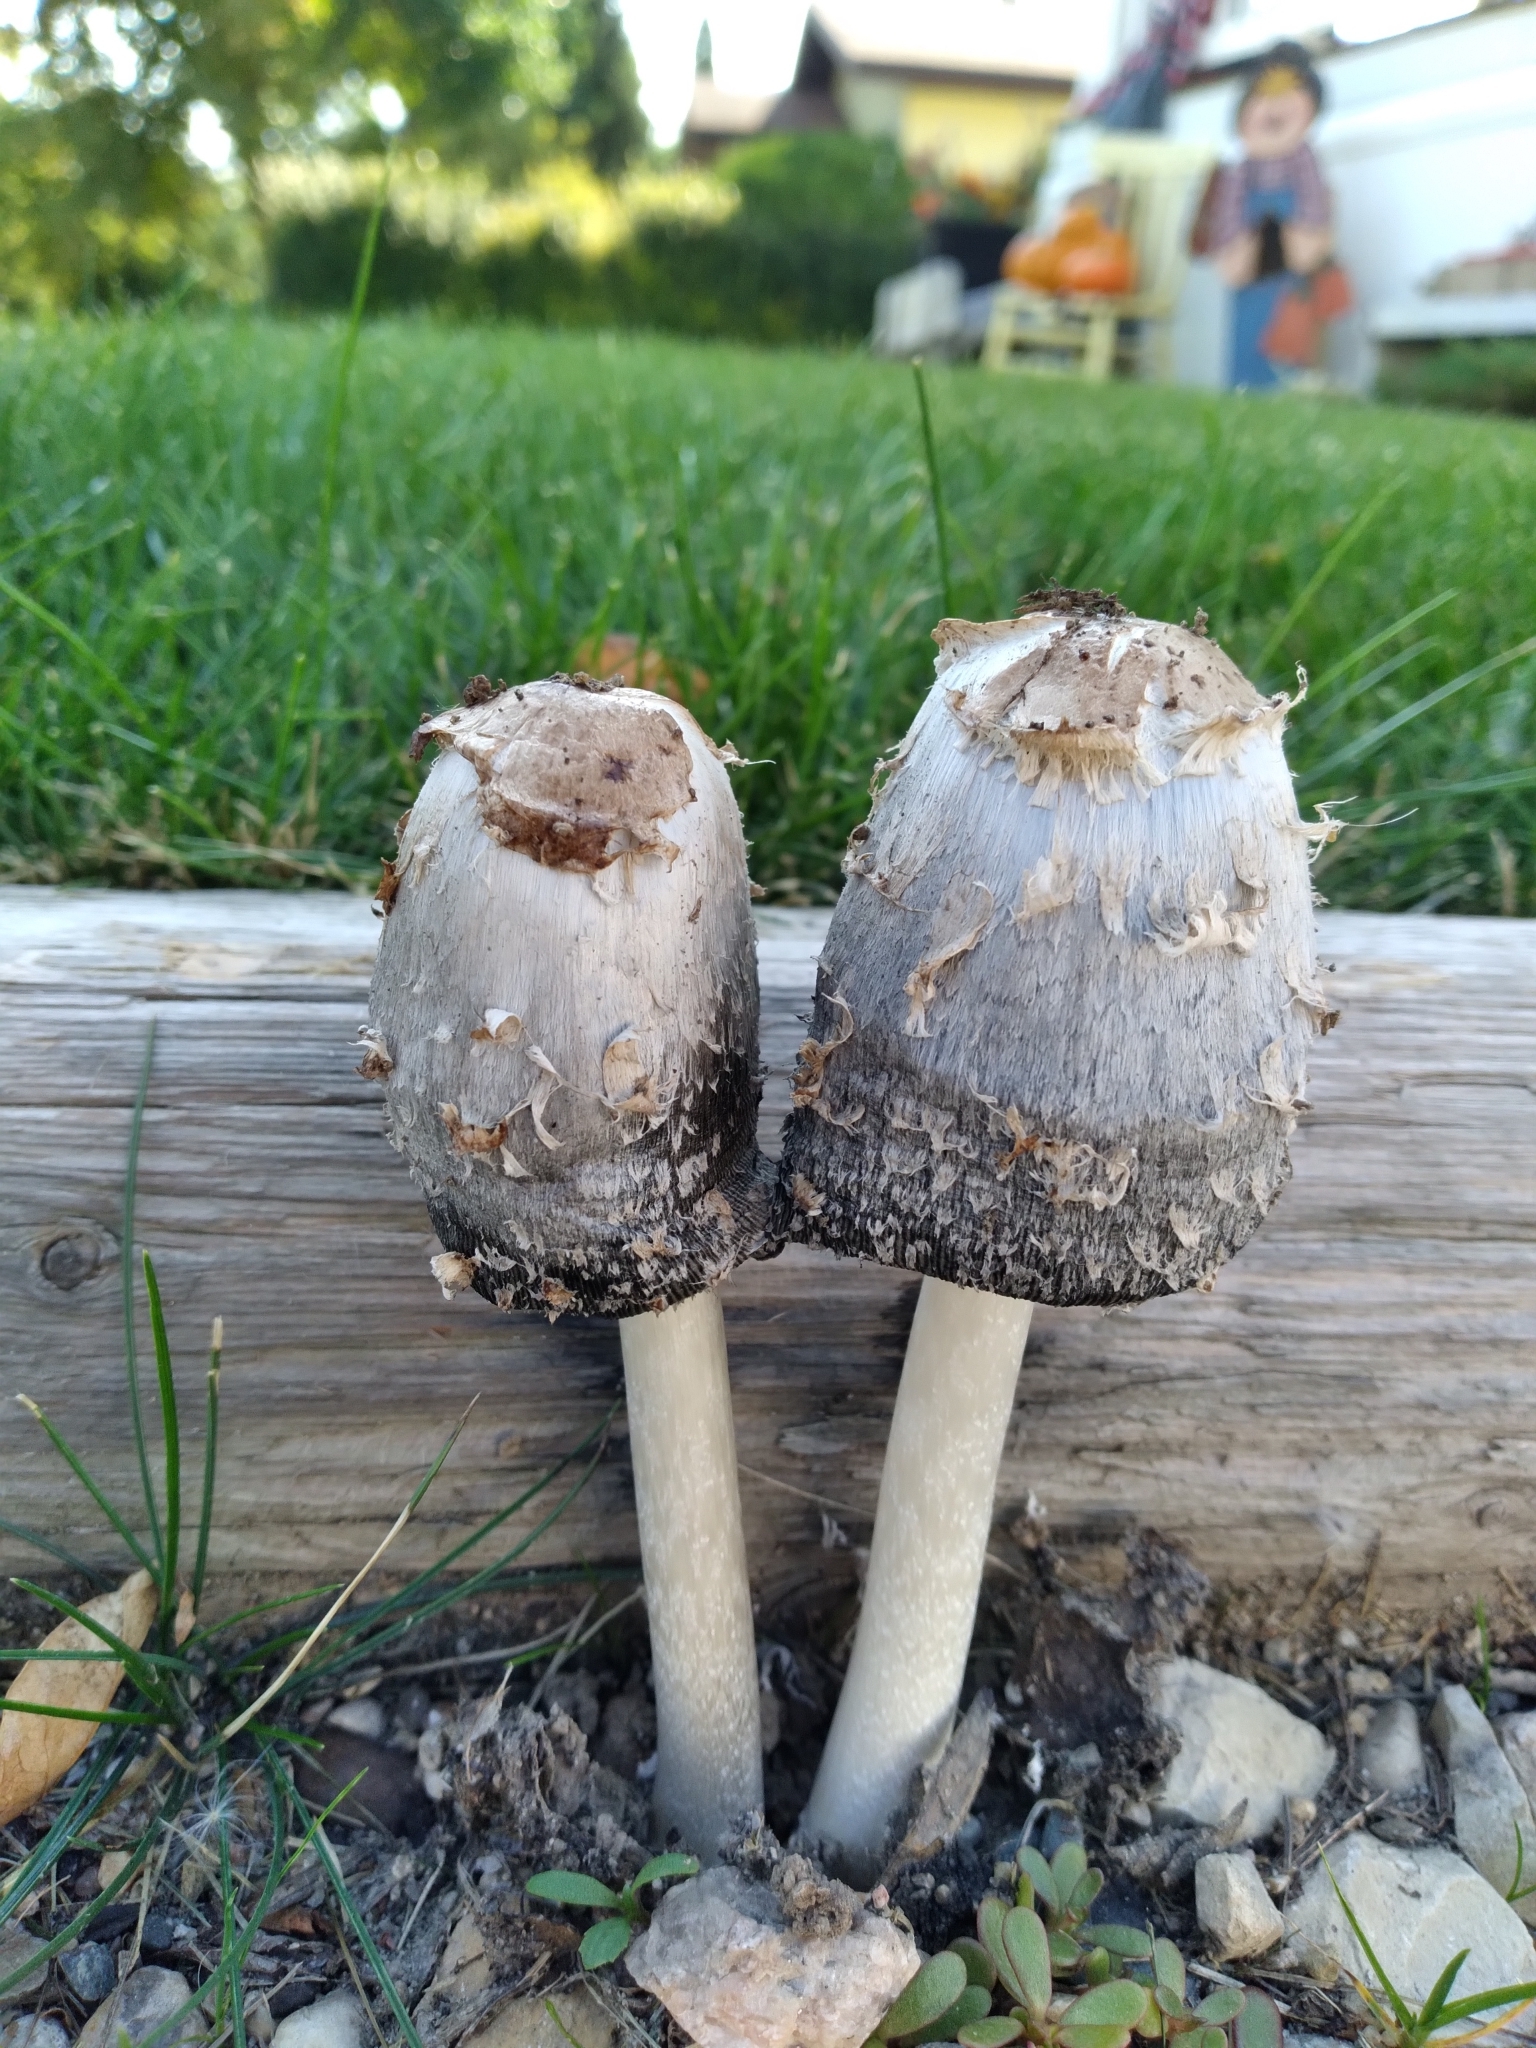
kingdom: Fungi
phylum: Basidiomycota
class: Agaricomycetes
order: Agaricales
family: Agaricaceae
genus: Coprinus
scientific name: Coprinus comatus
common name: Lawyer's wig
